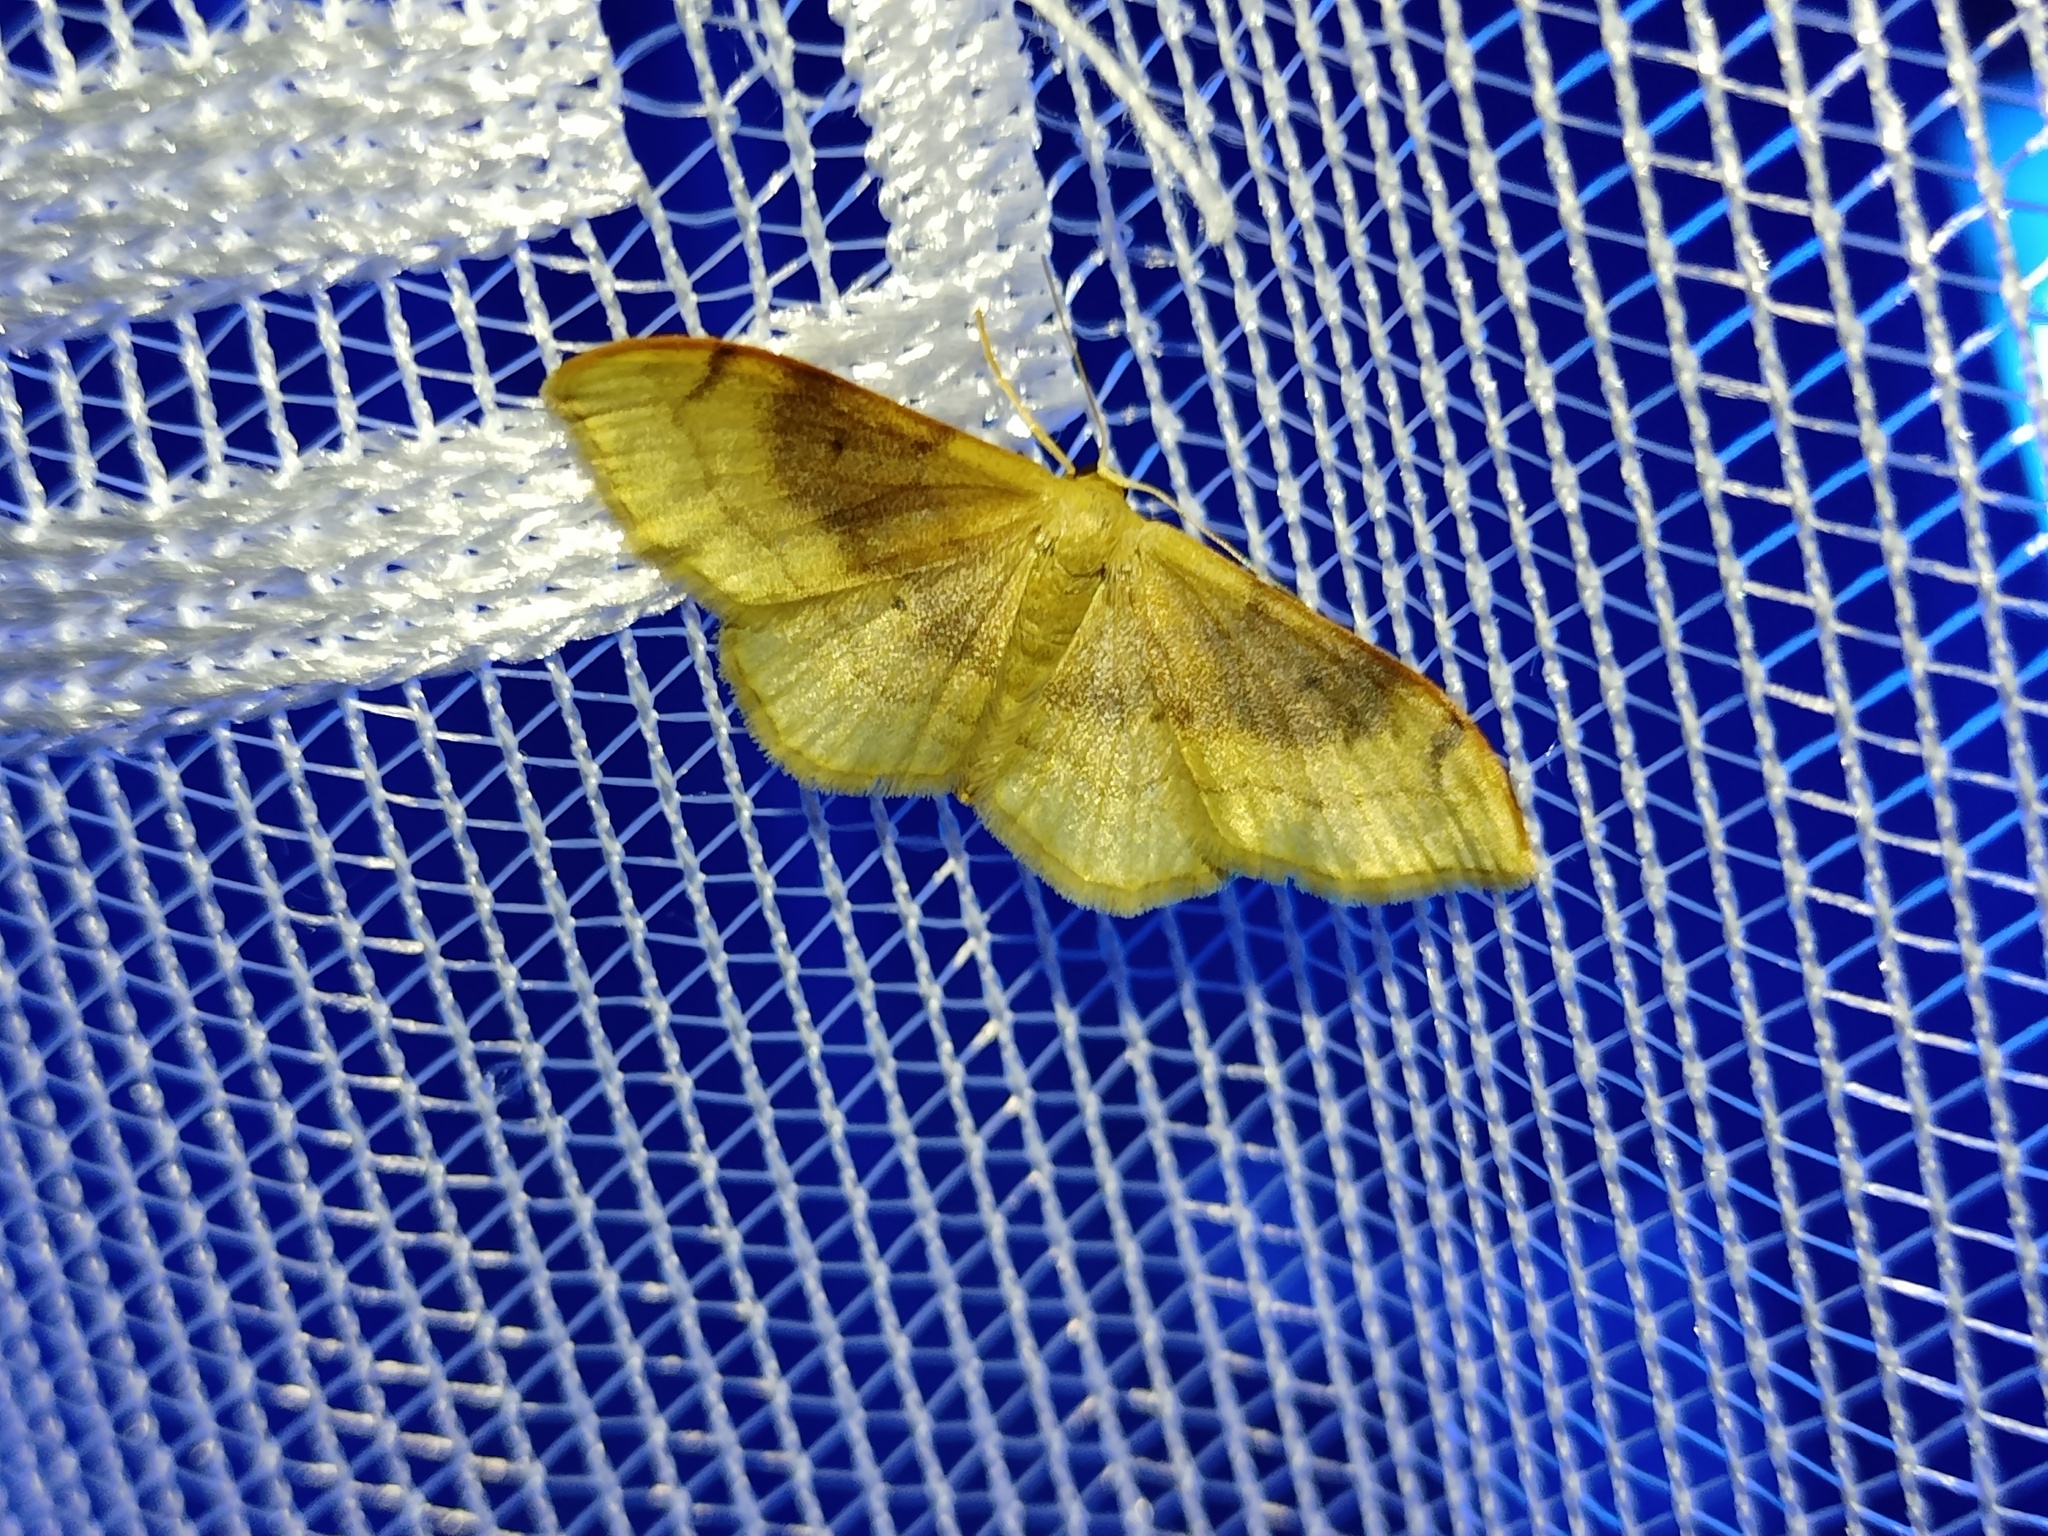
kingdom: Animalia
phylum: Arthropoda
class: Insecta
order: Lepidoptera
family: Geometridae
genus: Idaea
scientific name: Idaea degeneraria
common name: Portland ribbon wave
